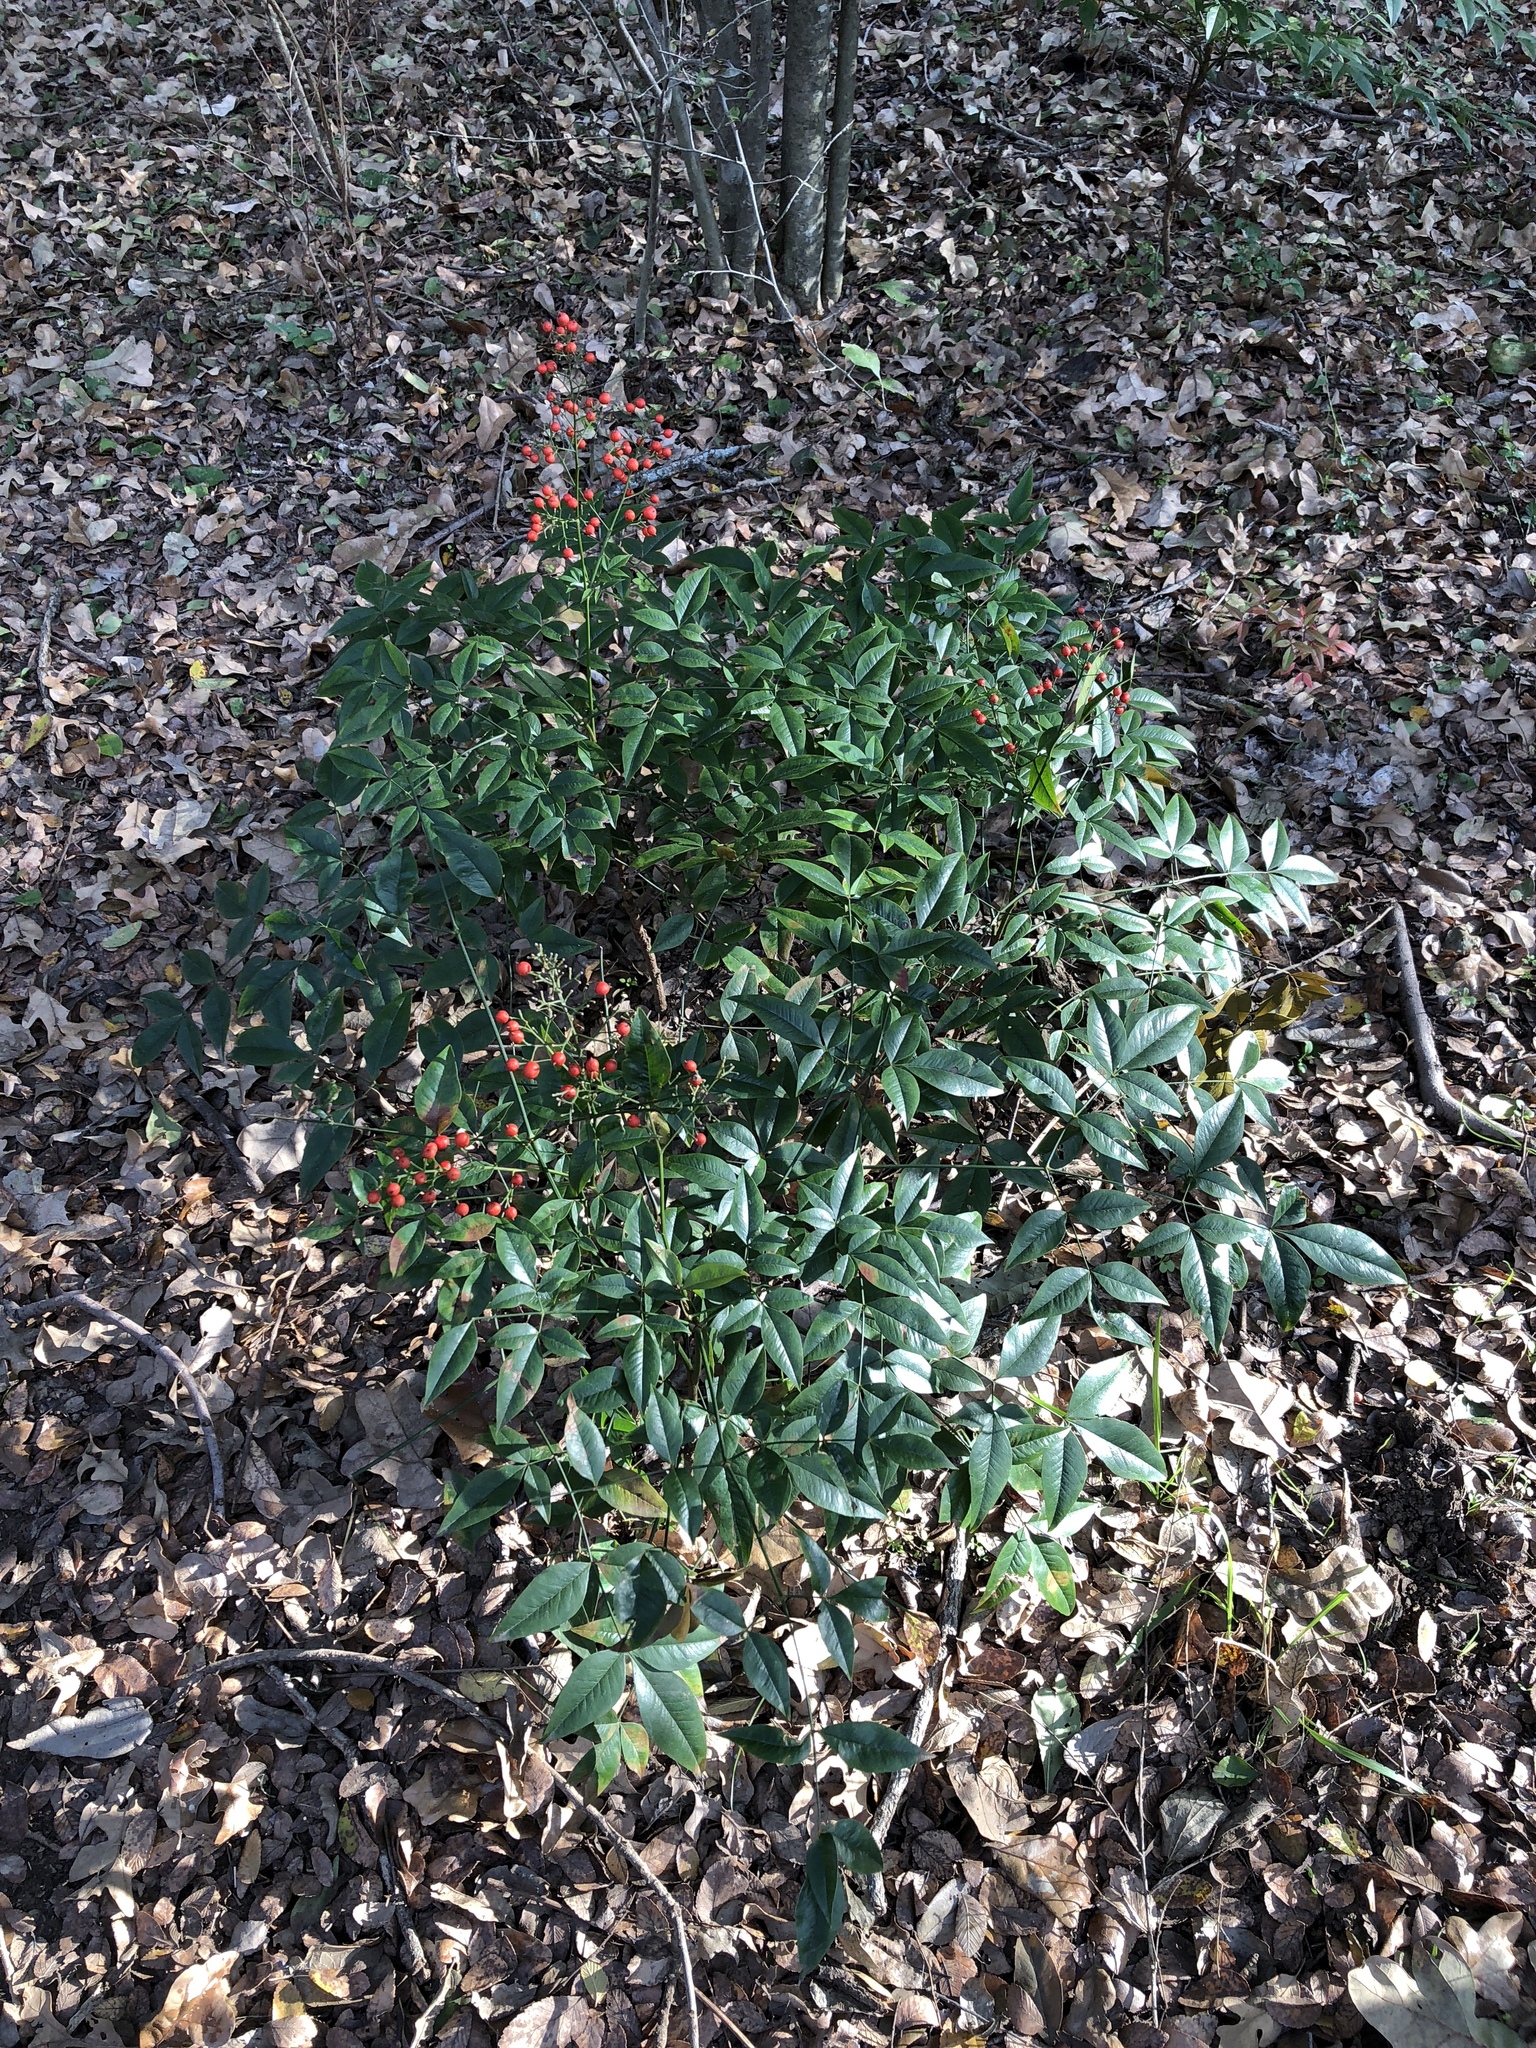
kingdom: Plantae
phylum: Tracheophyta
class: Magnoliopsida
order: Ranunculales
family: Berberidaceae
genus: Nandina
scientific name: Nandina domestica
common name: Sacred bamboo
